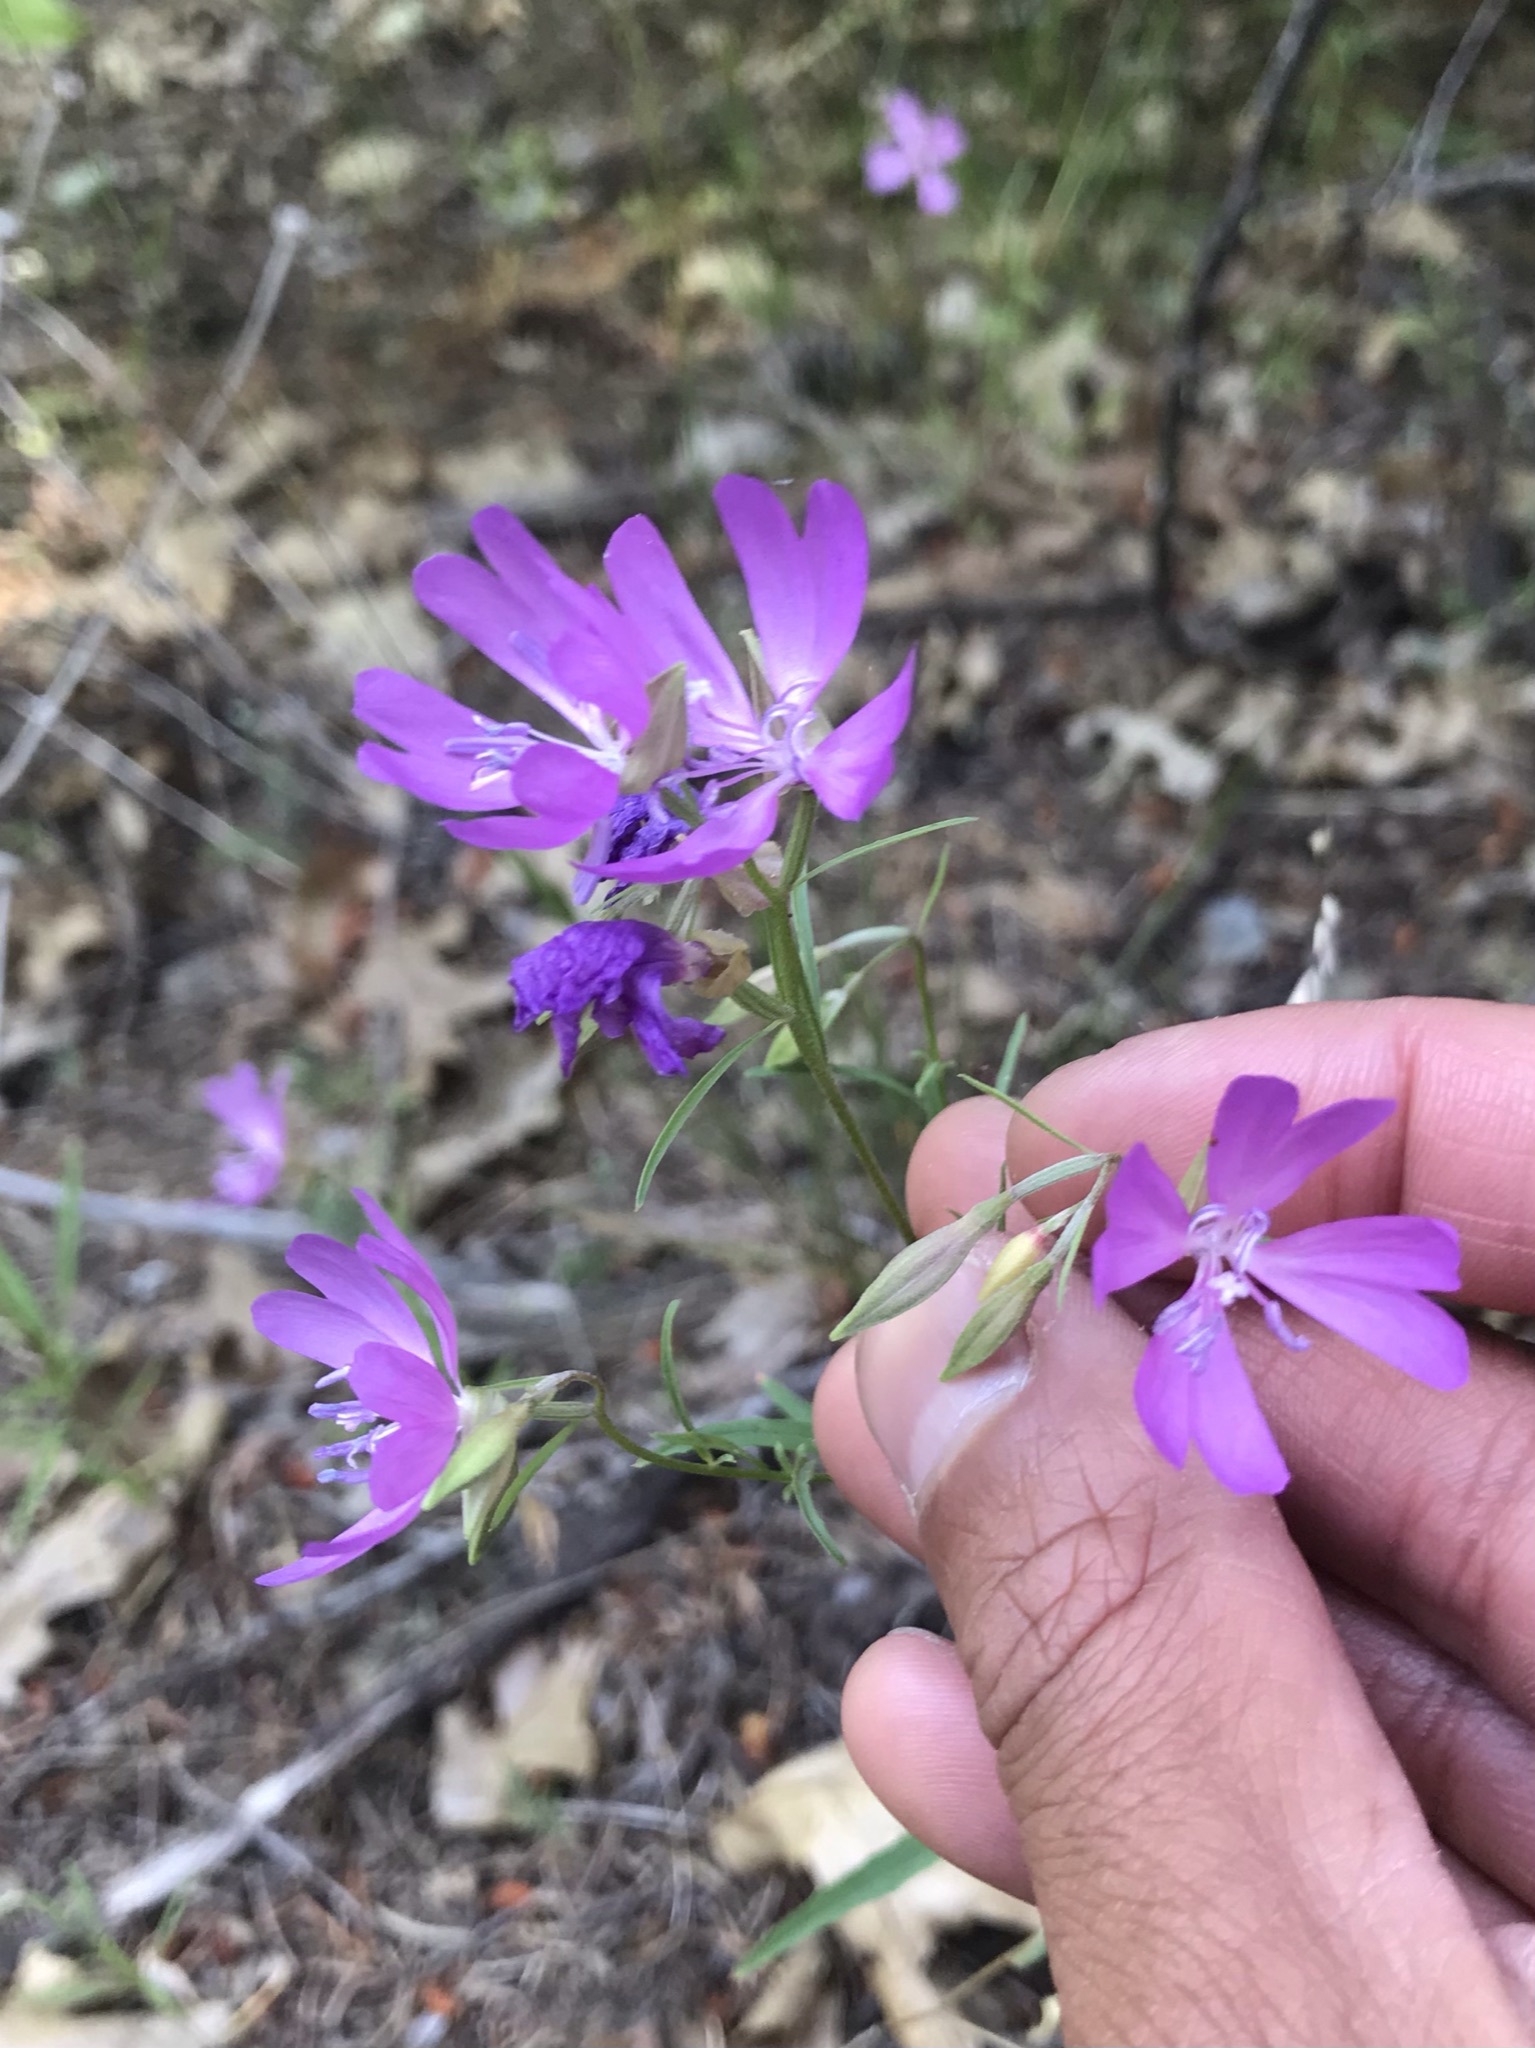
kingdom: Plantae
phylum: Tracheophyta
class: Magnoliopsida
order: Myrtales
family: Onagraceae
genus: Clarkia
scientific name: Clarkia biloba
